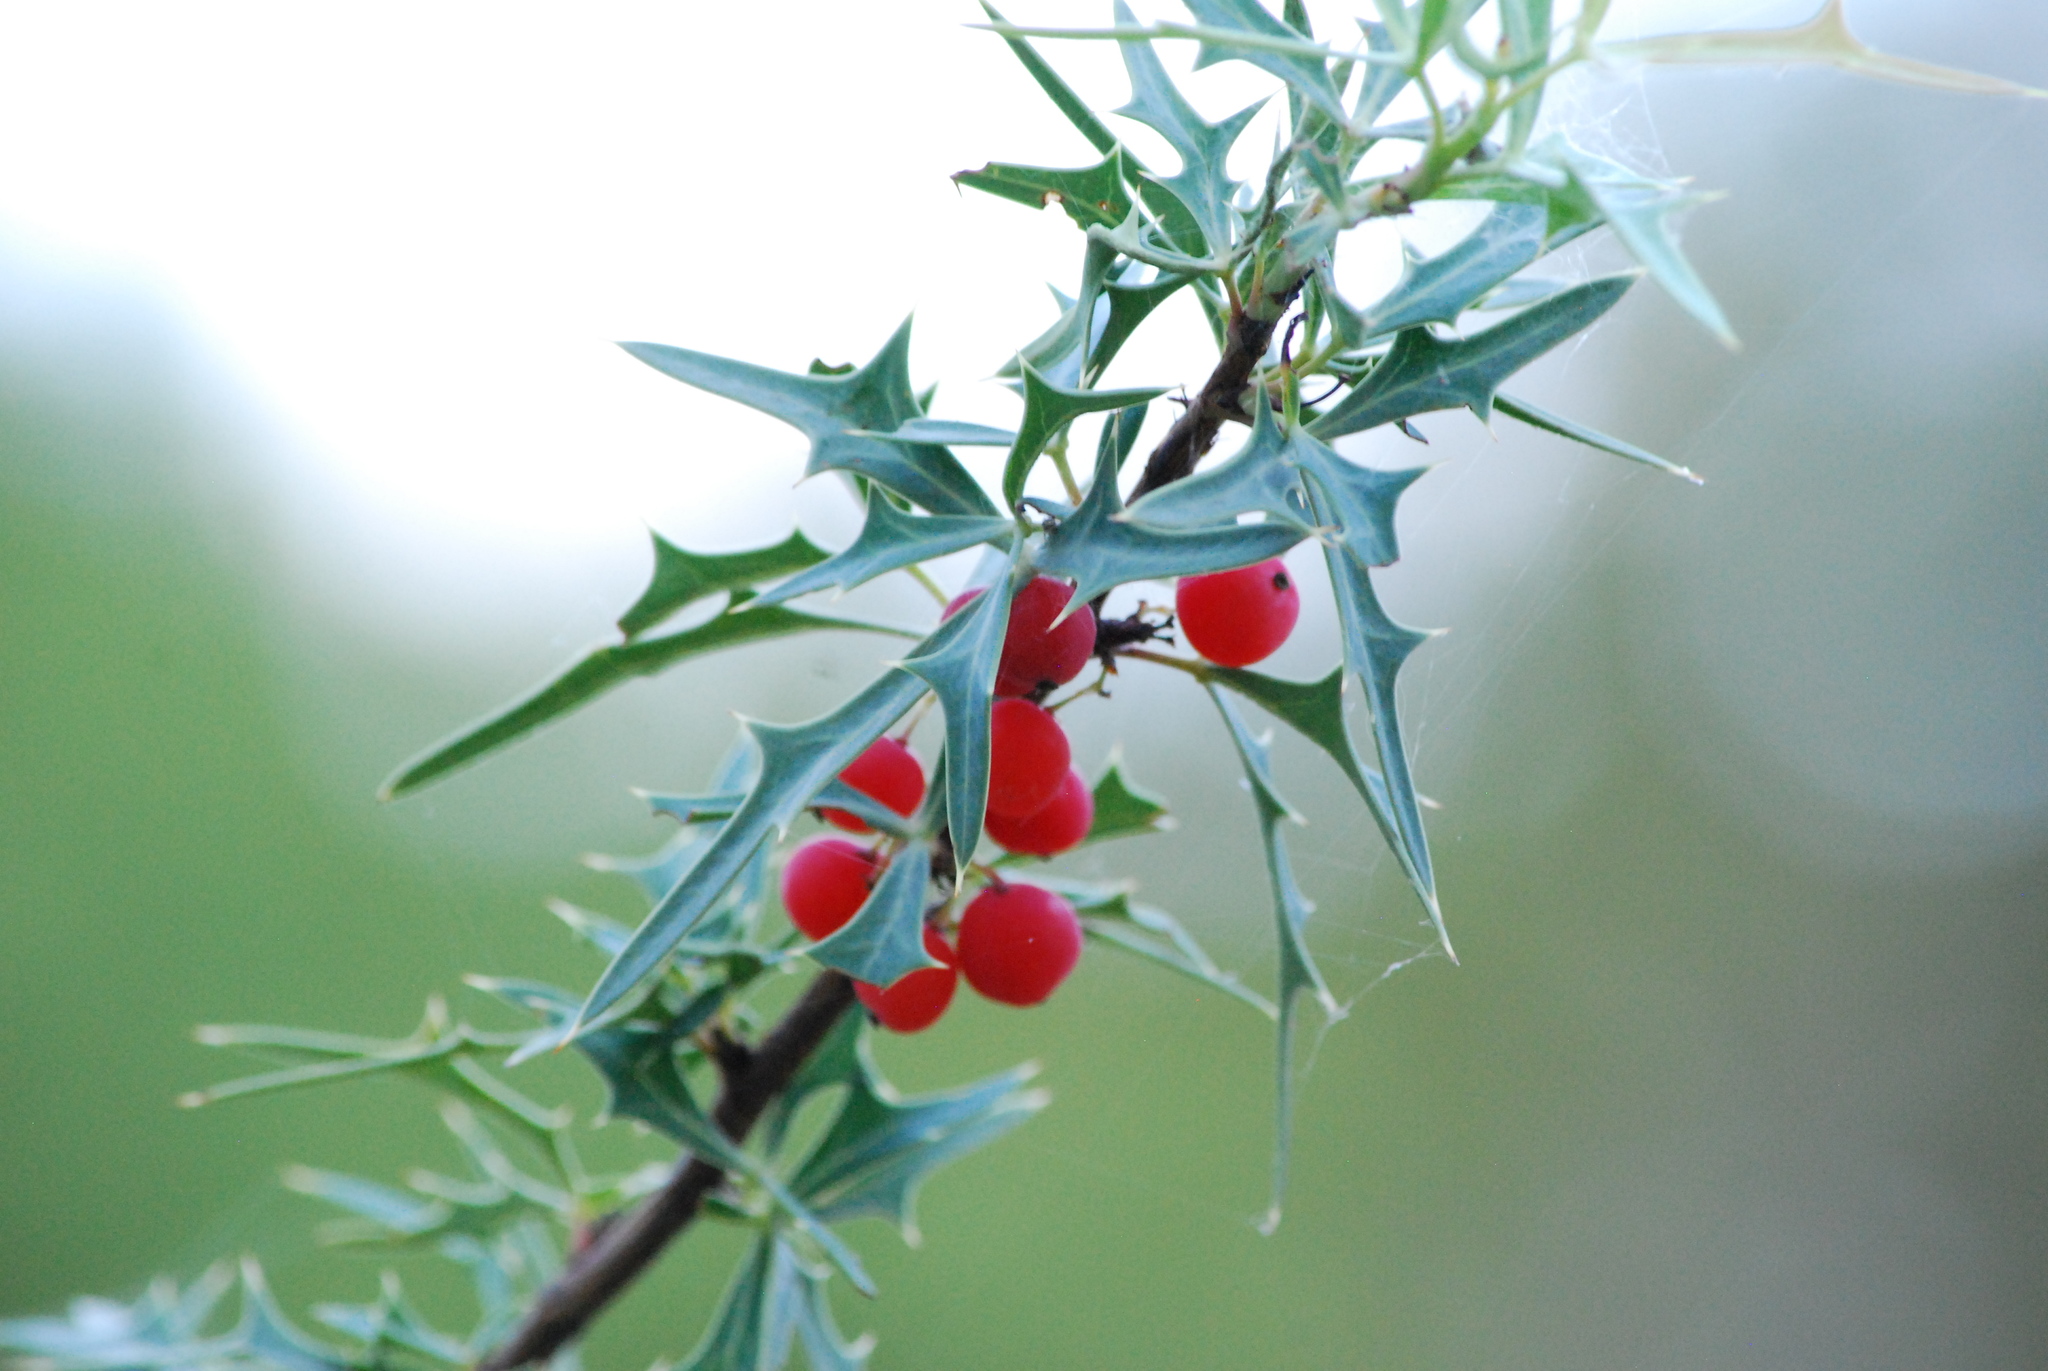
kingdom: Plantae
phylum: Tracheophyta
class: Magnoliopsida
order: Ranunculales
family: Berberidaceae
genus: Alloberberis
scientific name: Alloberberis trifoliolata
